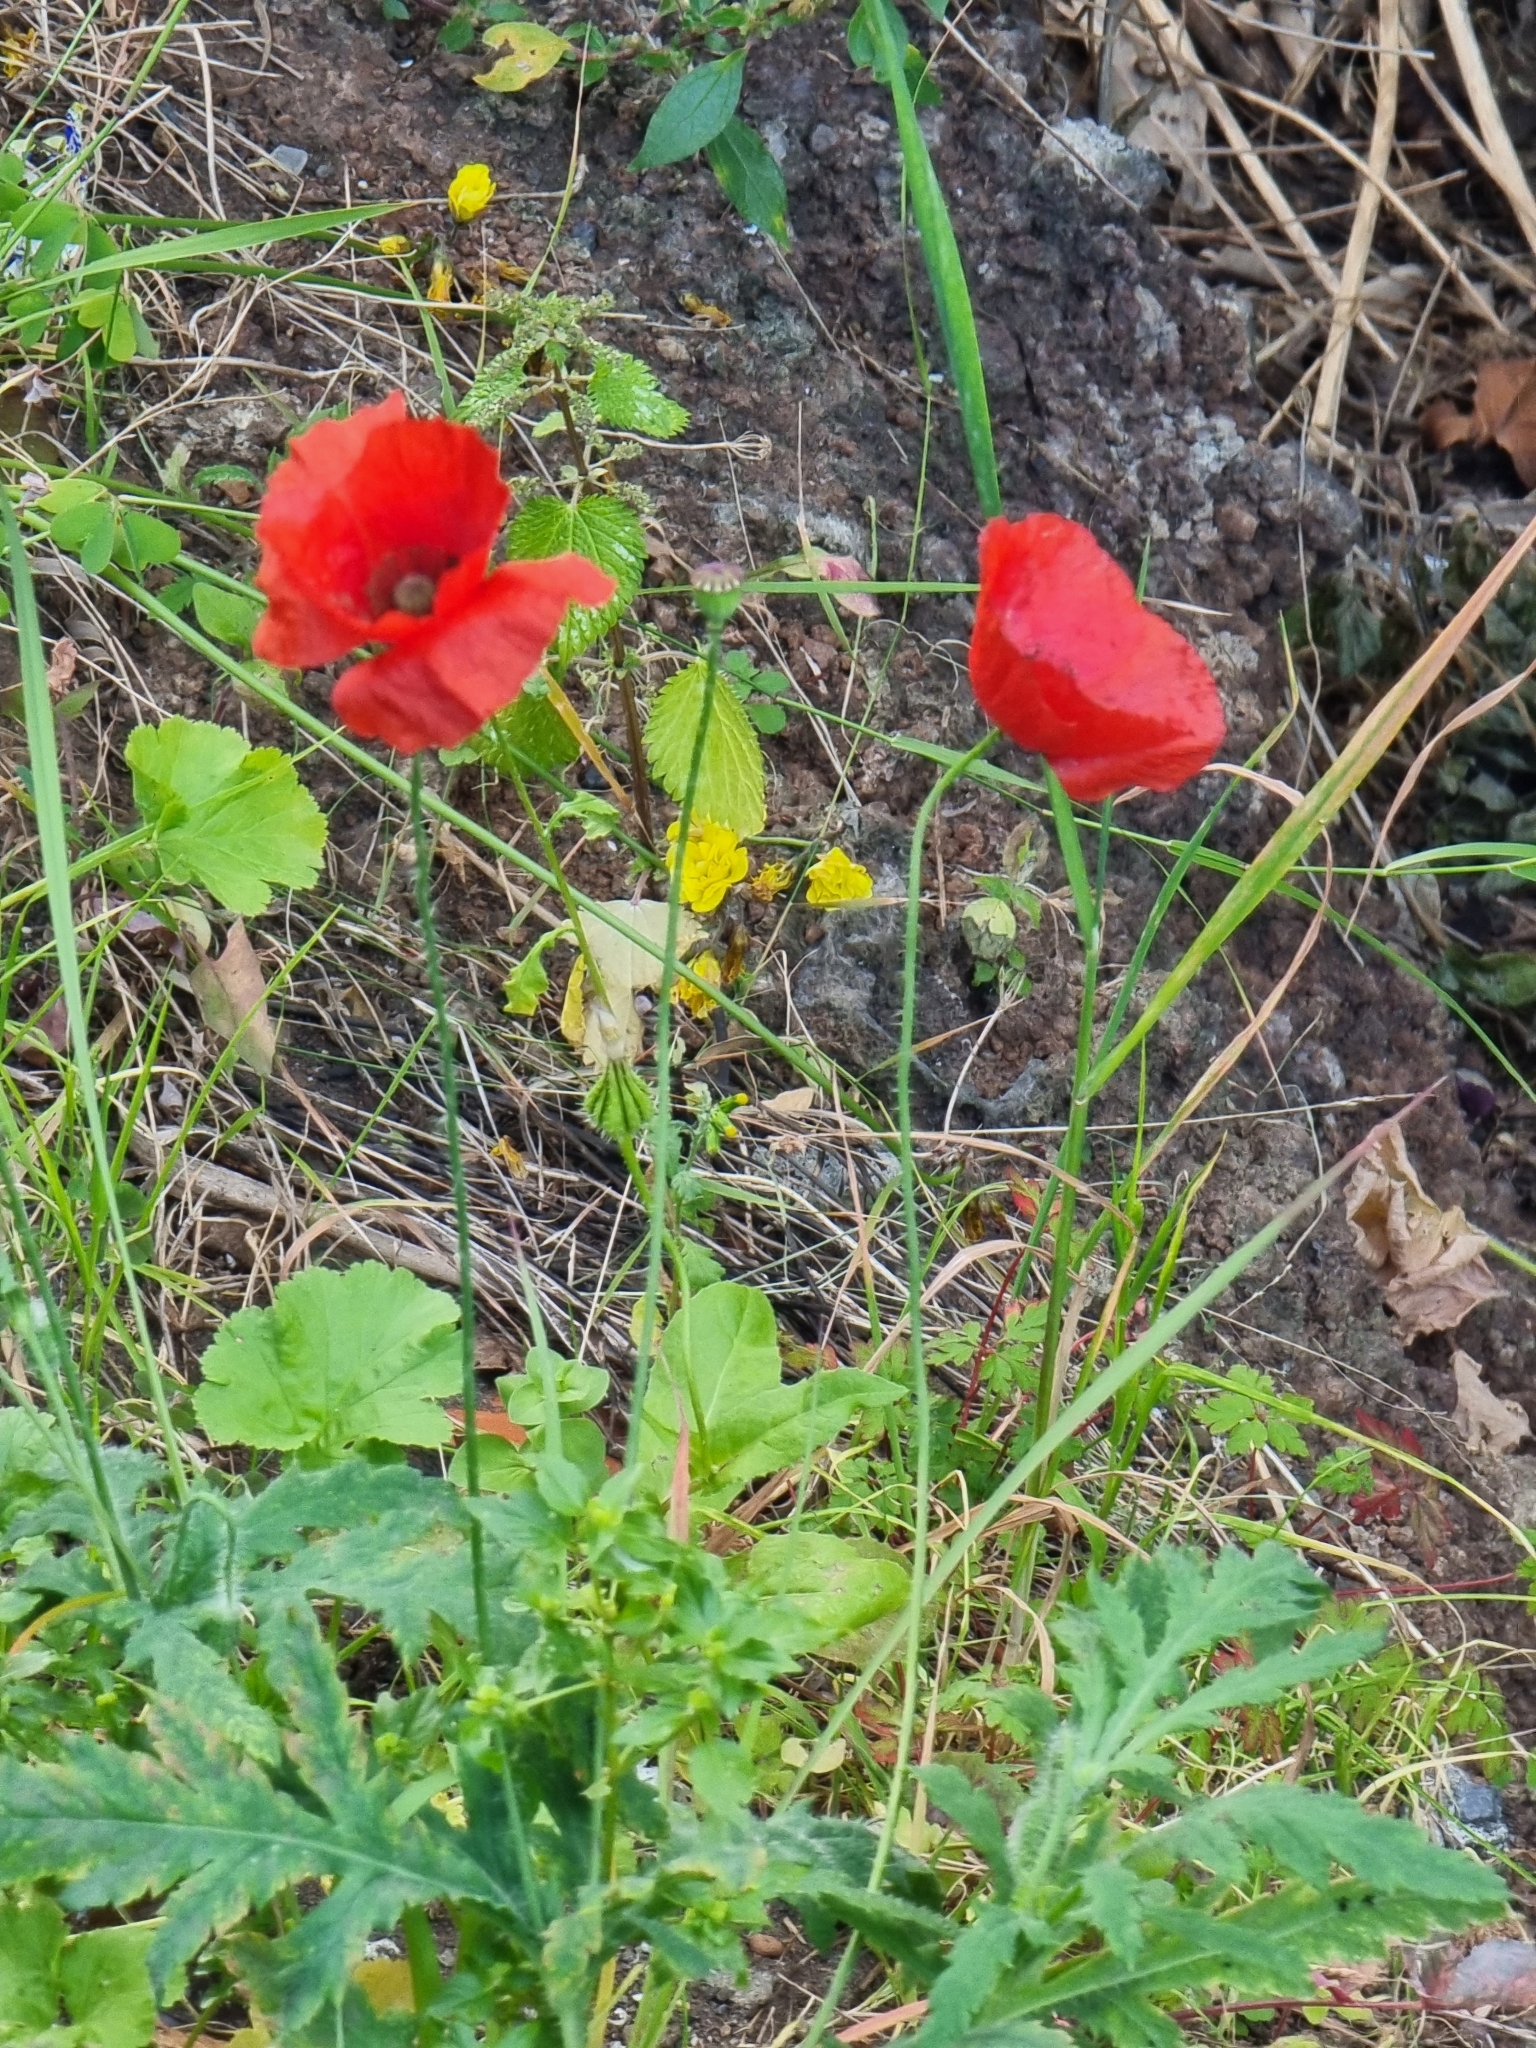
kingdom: Plantae
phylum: Tracheophyta
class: Magnoliopsida
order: Ranunculales
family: Papaveraceae
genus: Papaver
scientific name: Papaver rhoeas
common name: Corn poppy
